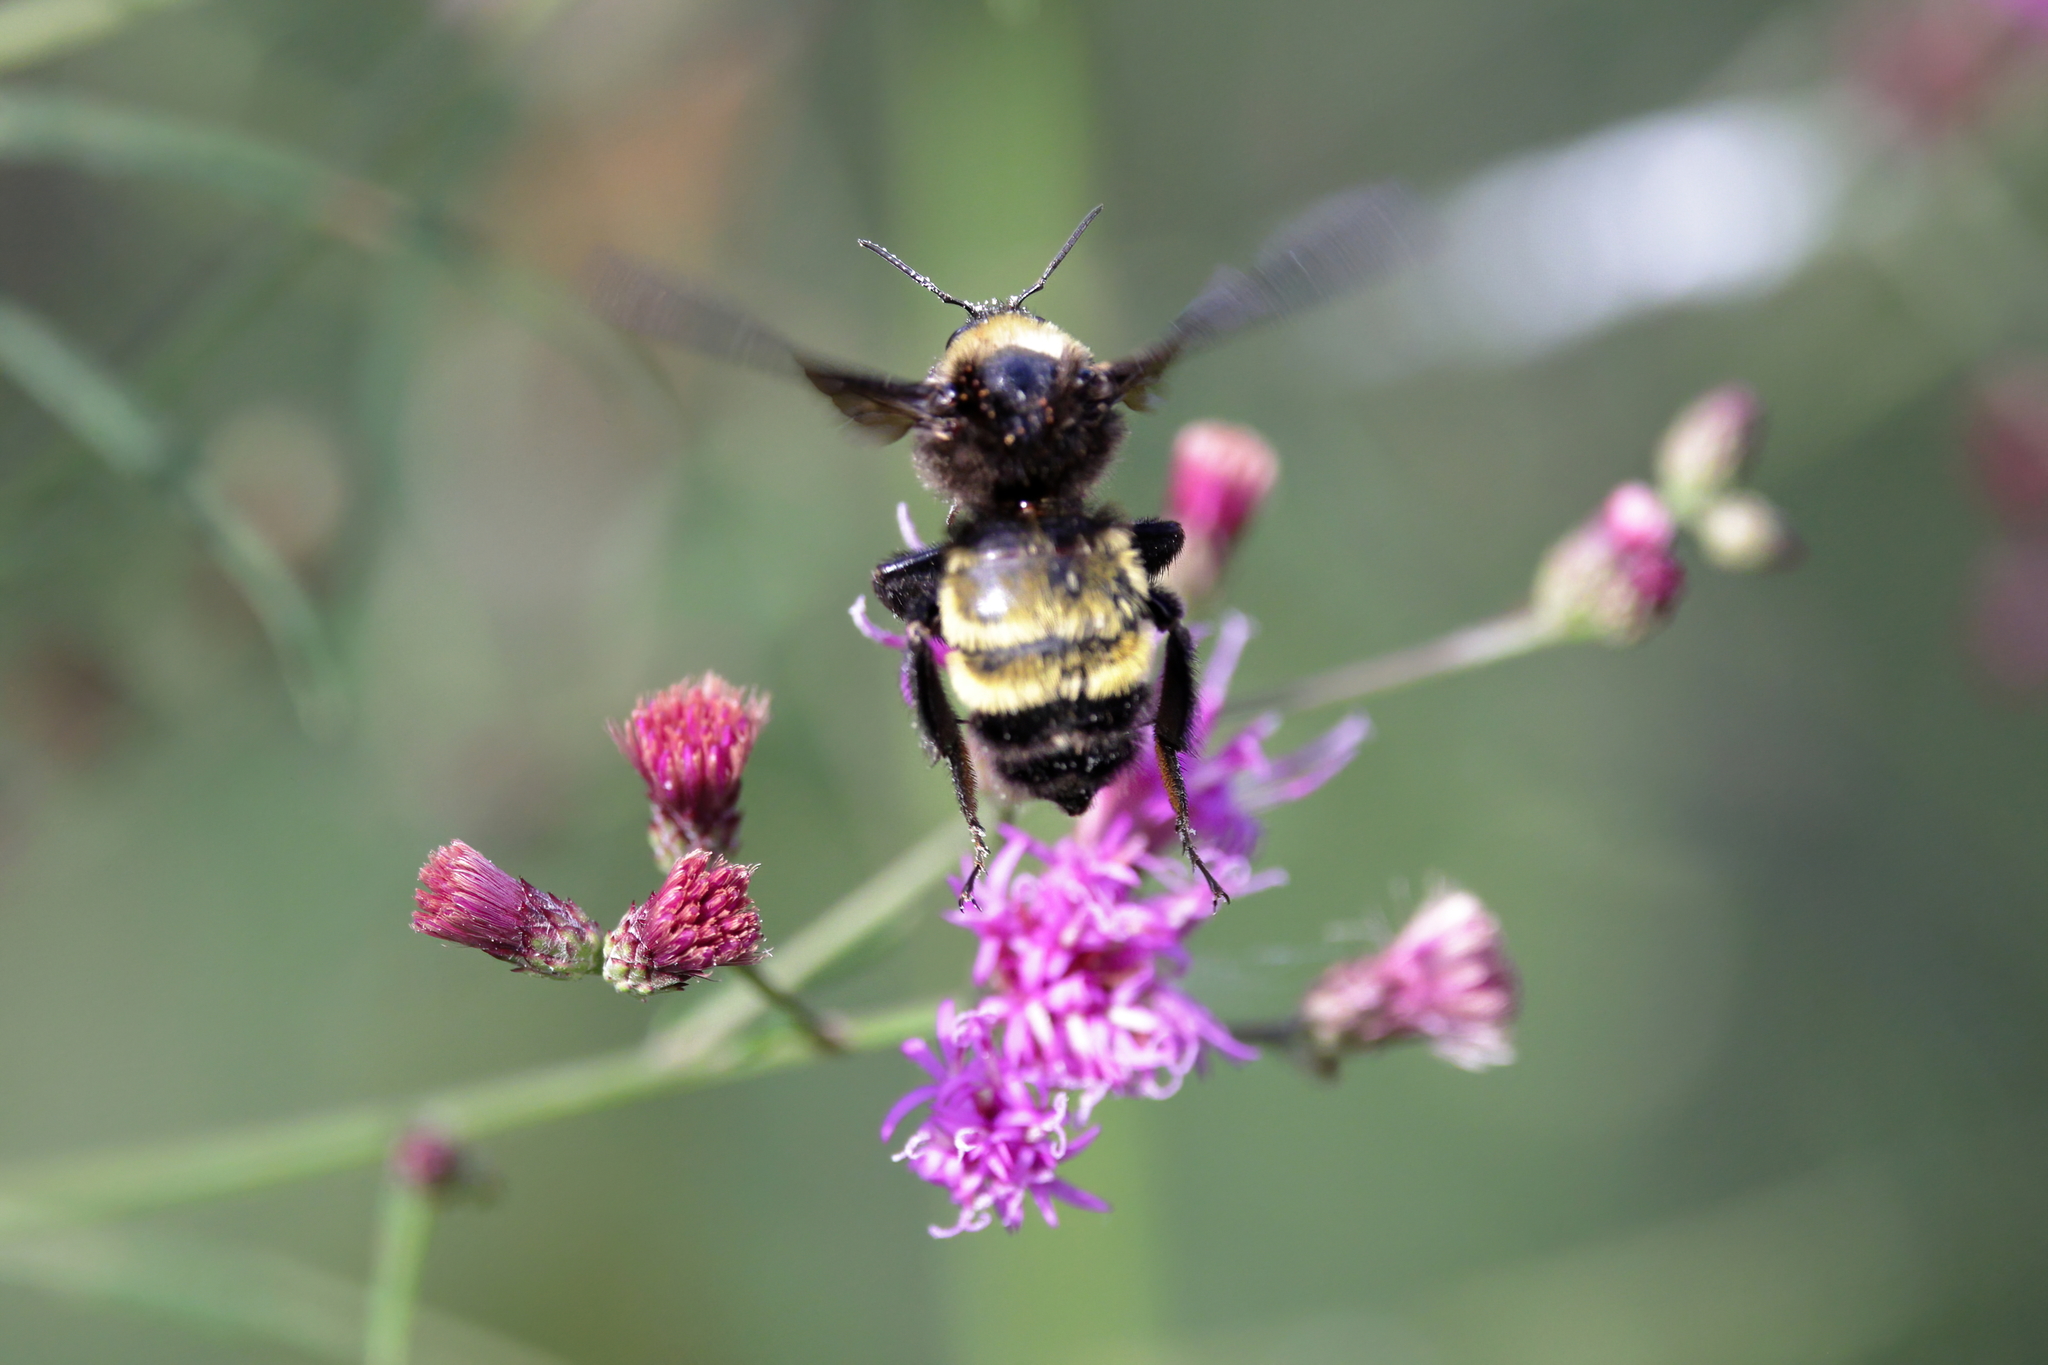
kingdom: Animalia
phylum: Arthropoda
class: Insecta
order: Hymenoptera
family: Apidae
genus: Bombus
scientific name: Bombus pensylvanicus
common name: Bumble bee
